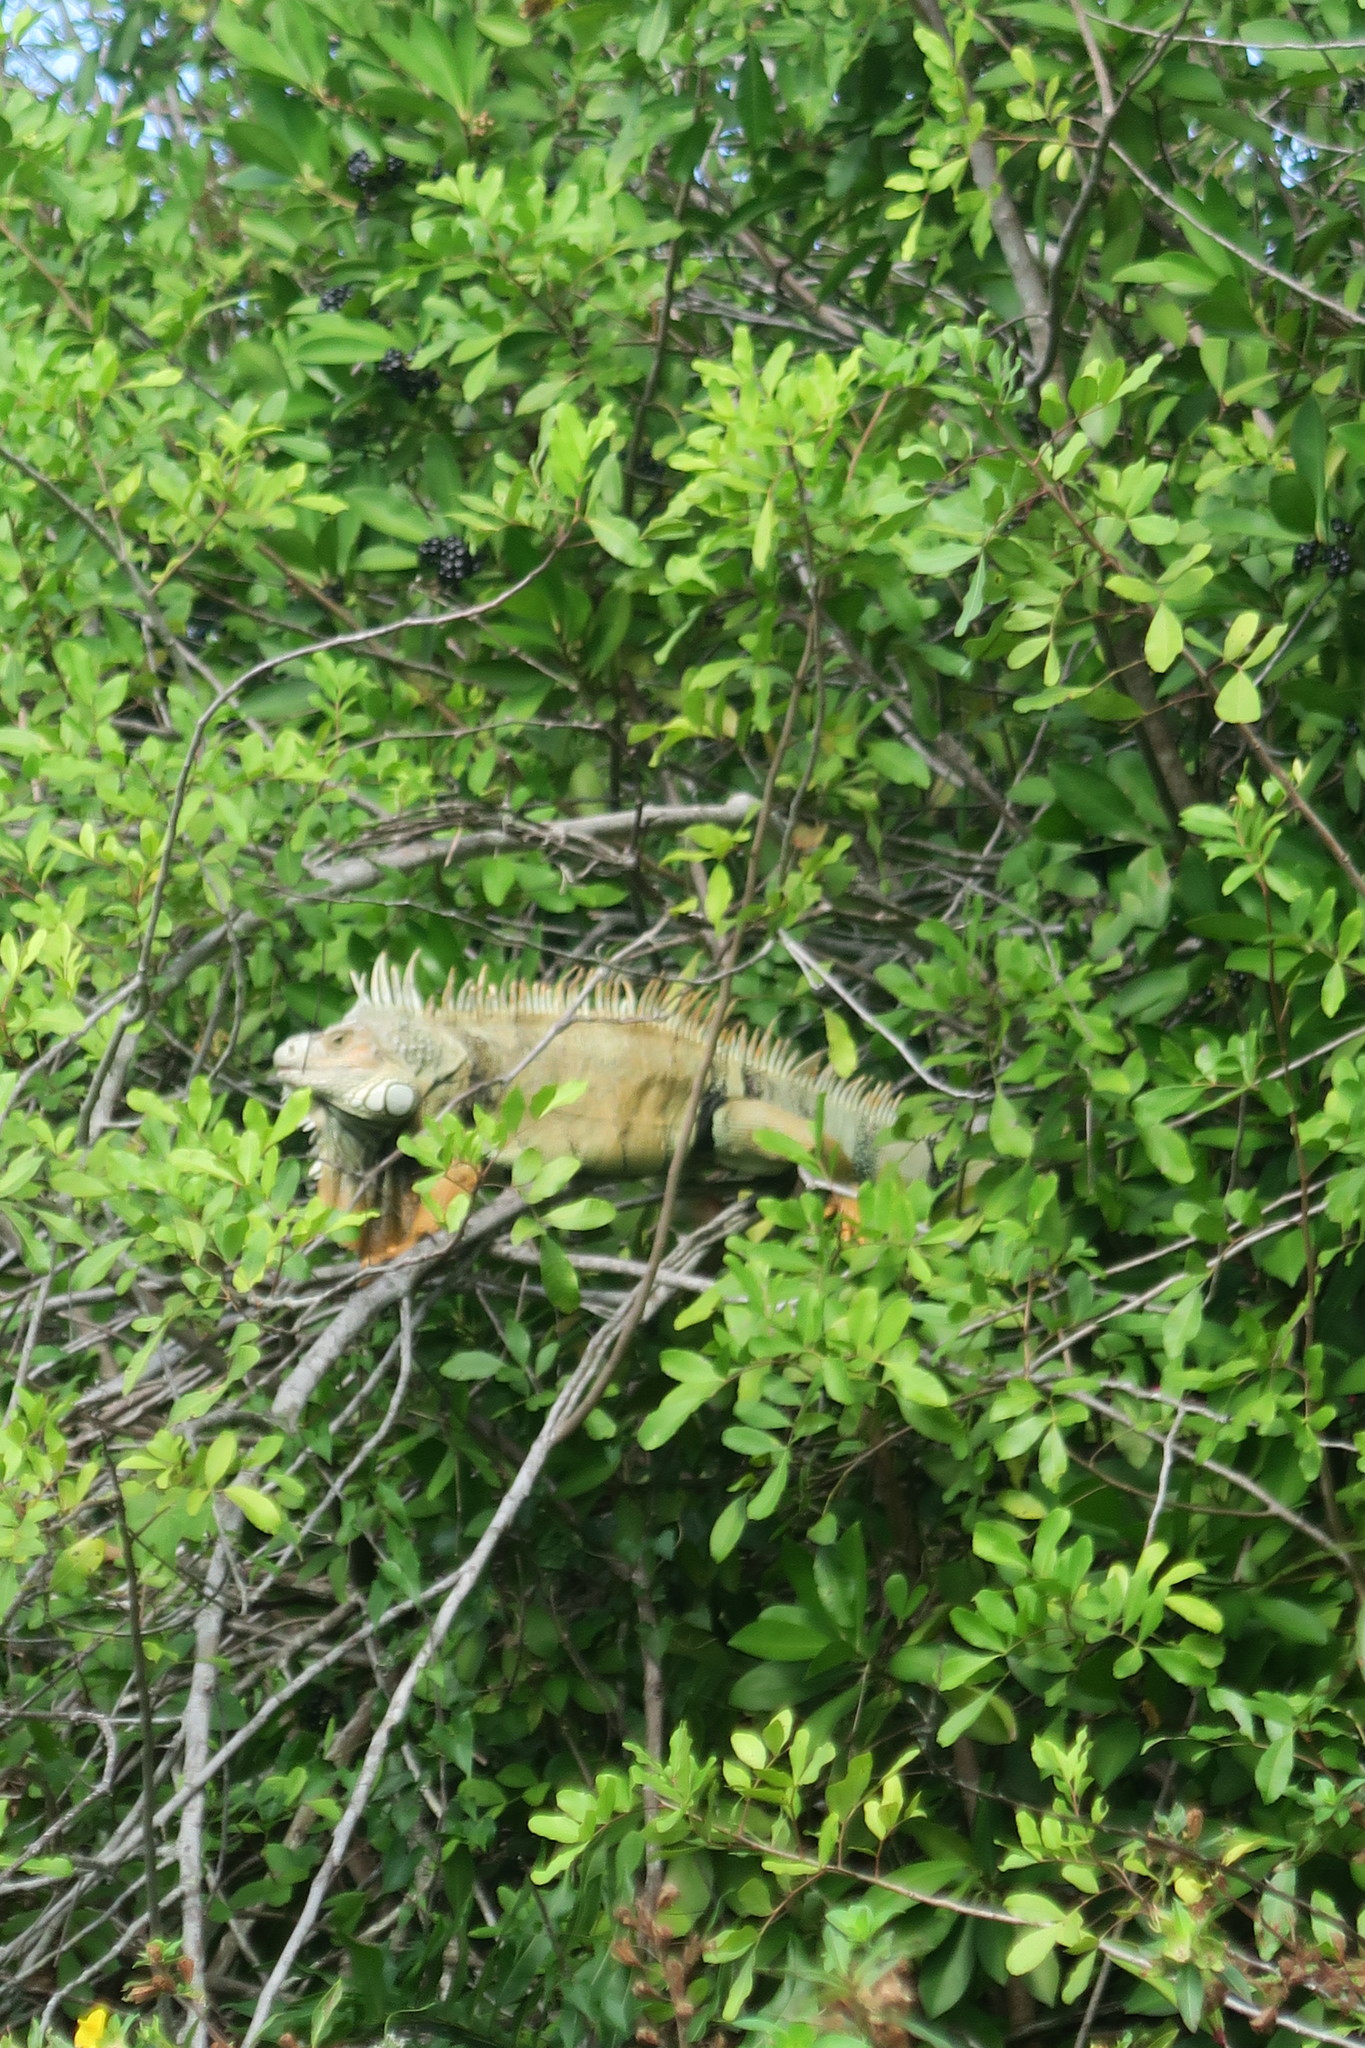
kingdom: Animalia
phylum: Chordata
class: Squamata
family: Iguanidae
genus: Iguana
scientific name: Iguana iguana
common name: Green iguana
